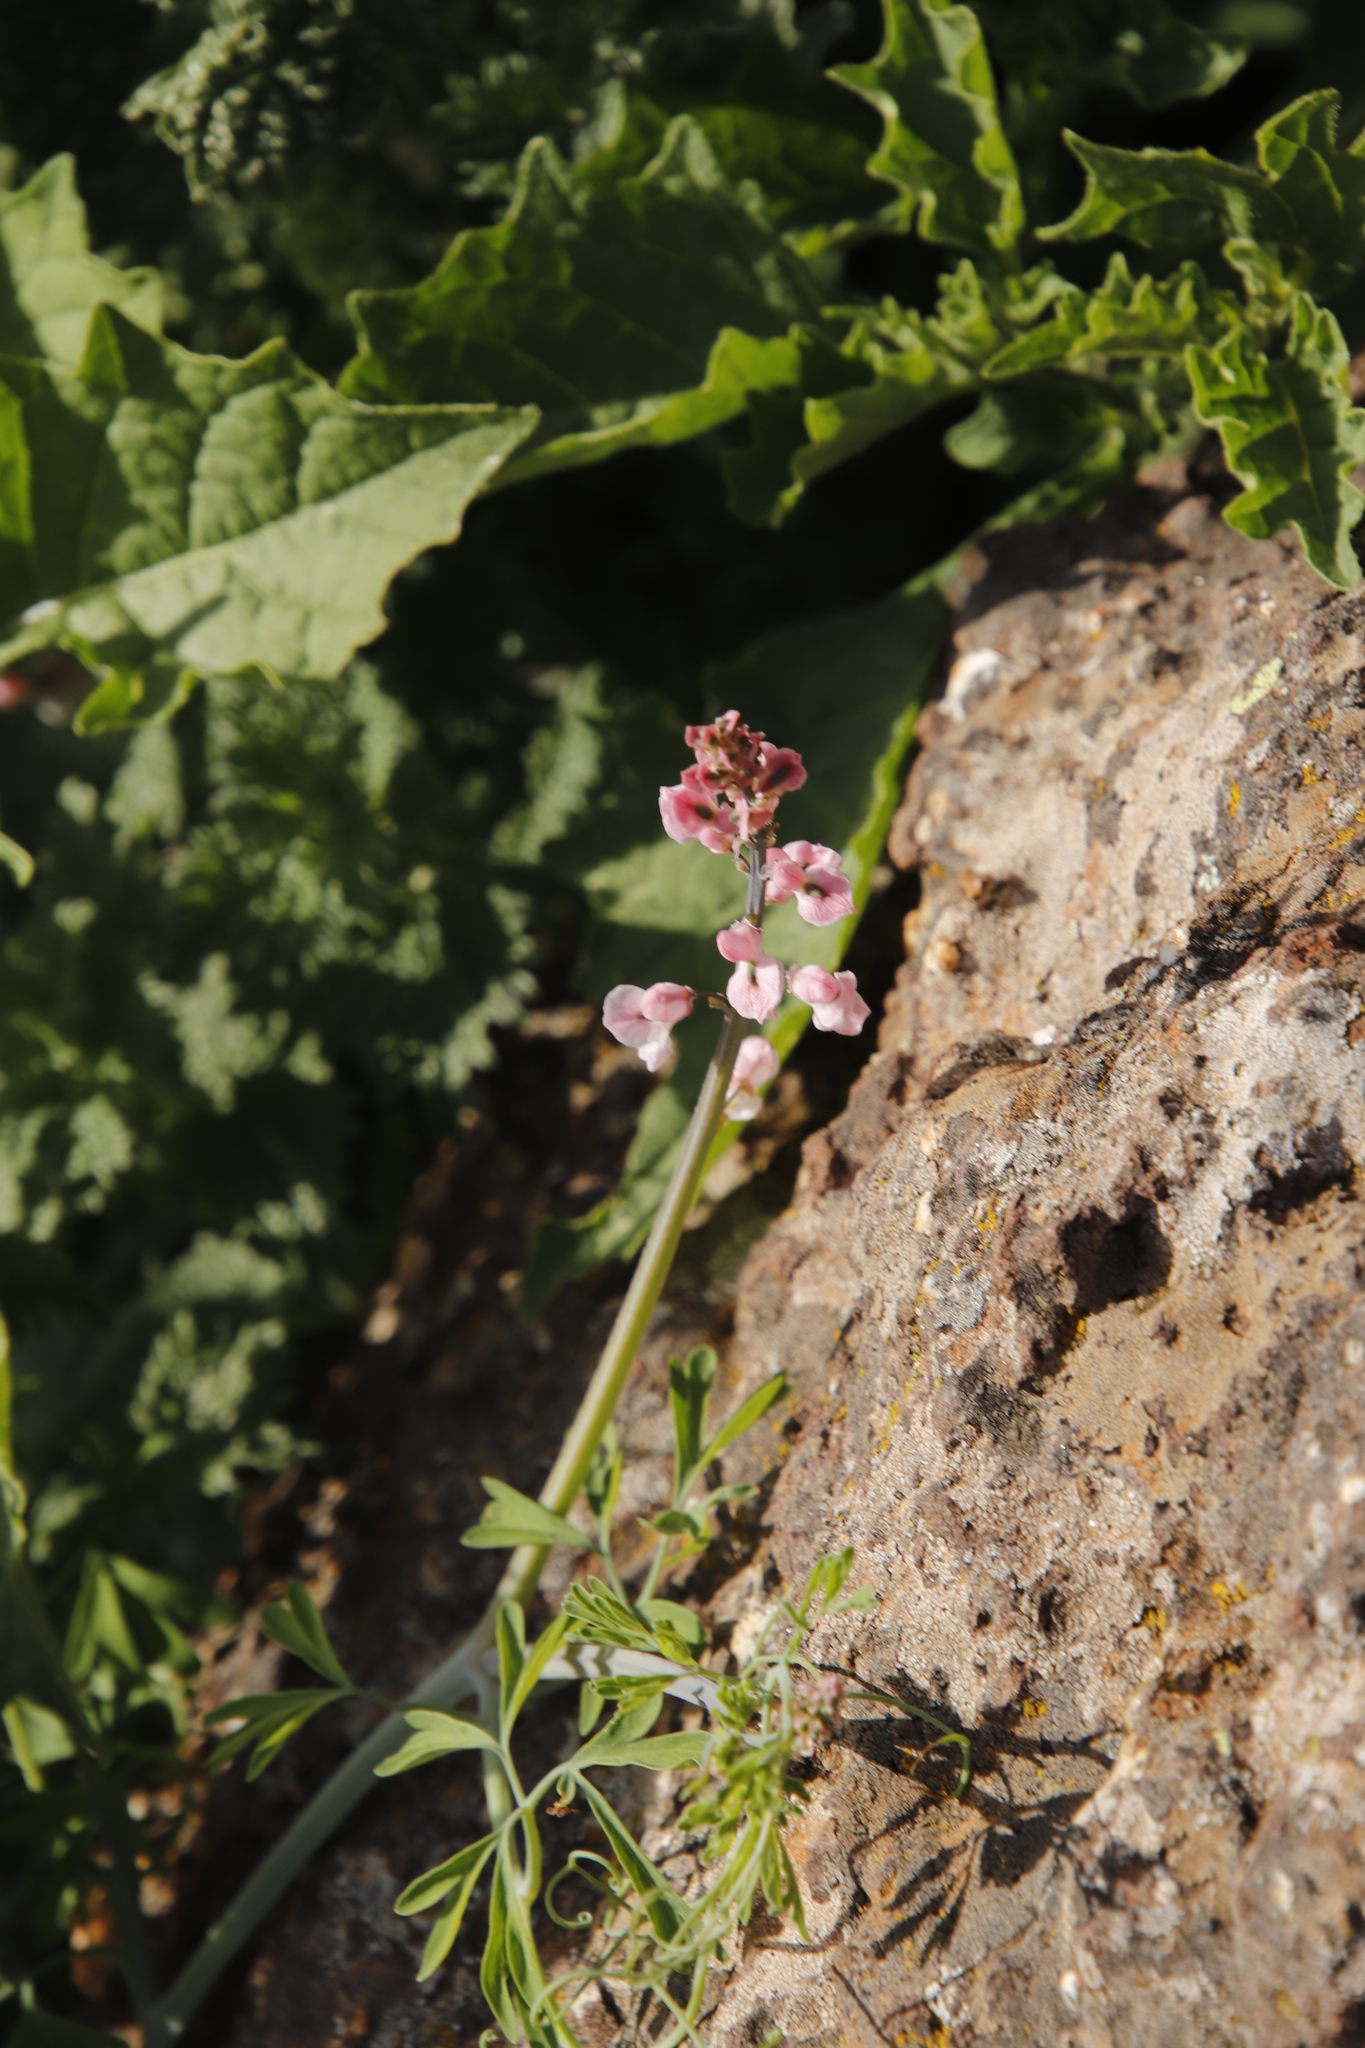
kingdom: Plantae
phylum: Tracheophyta
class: Magnoliopsida
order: Ranunculales
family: Papaveraceae
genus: Cysticapnos
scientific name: Cysticapnos pruinosa
